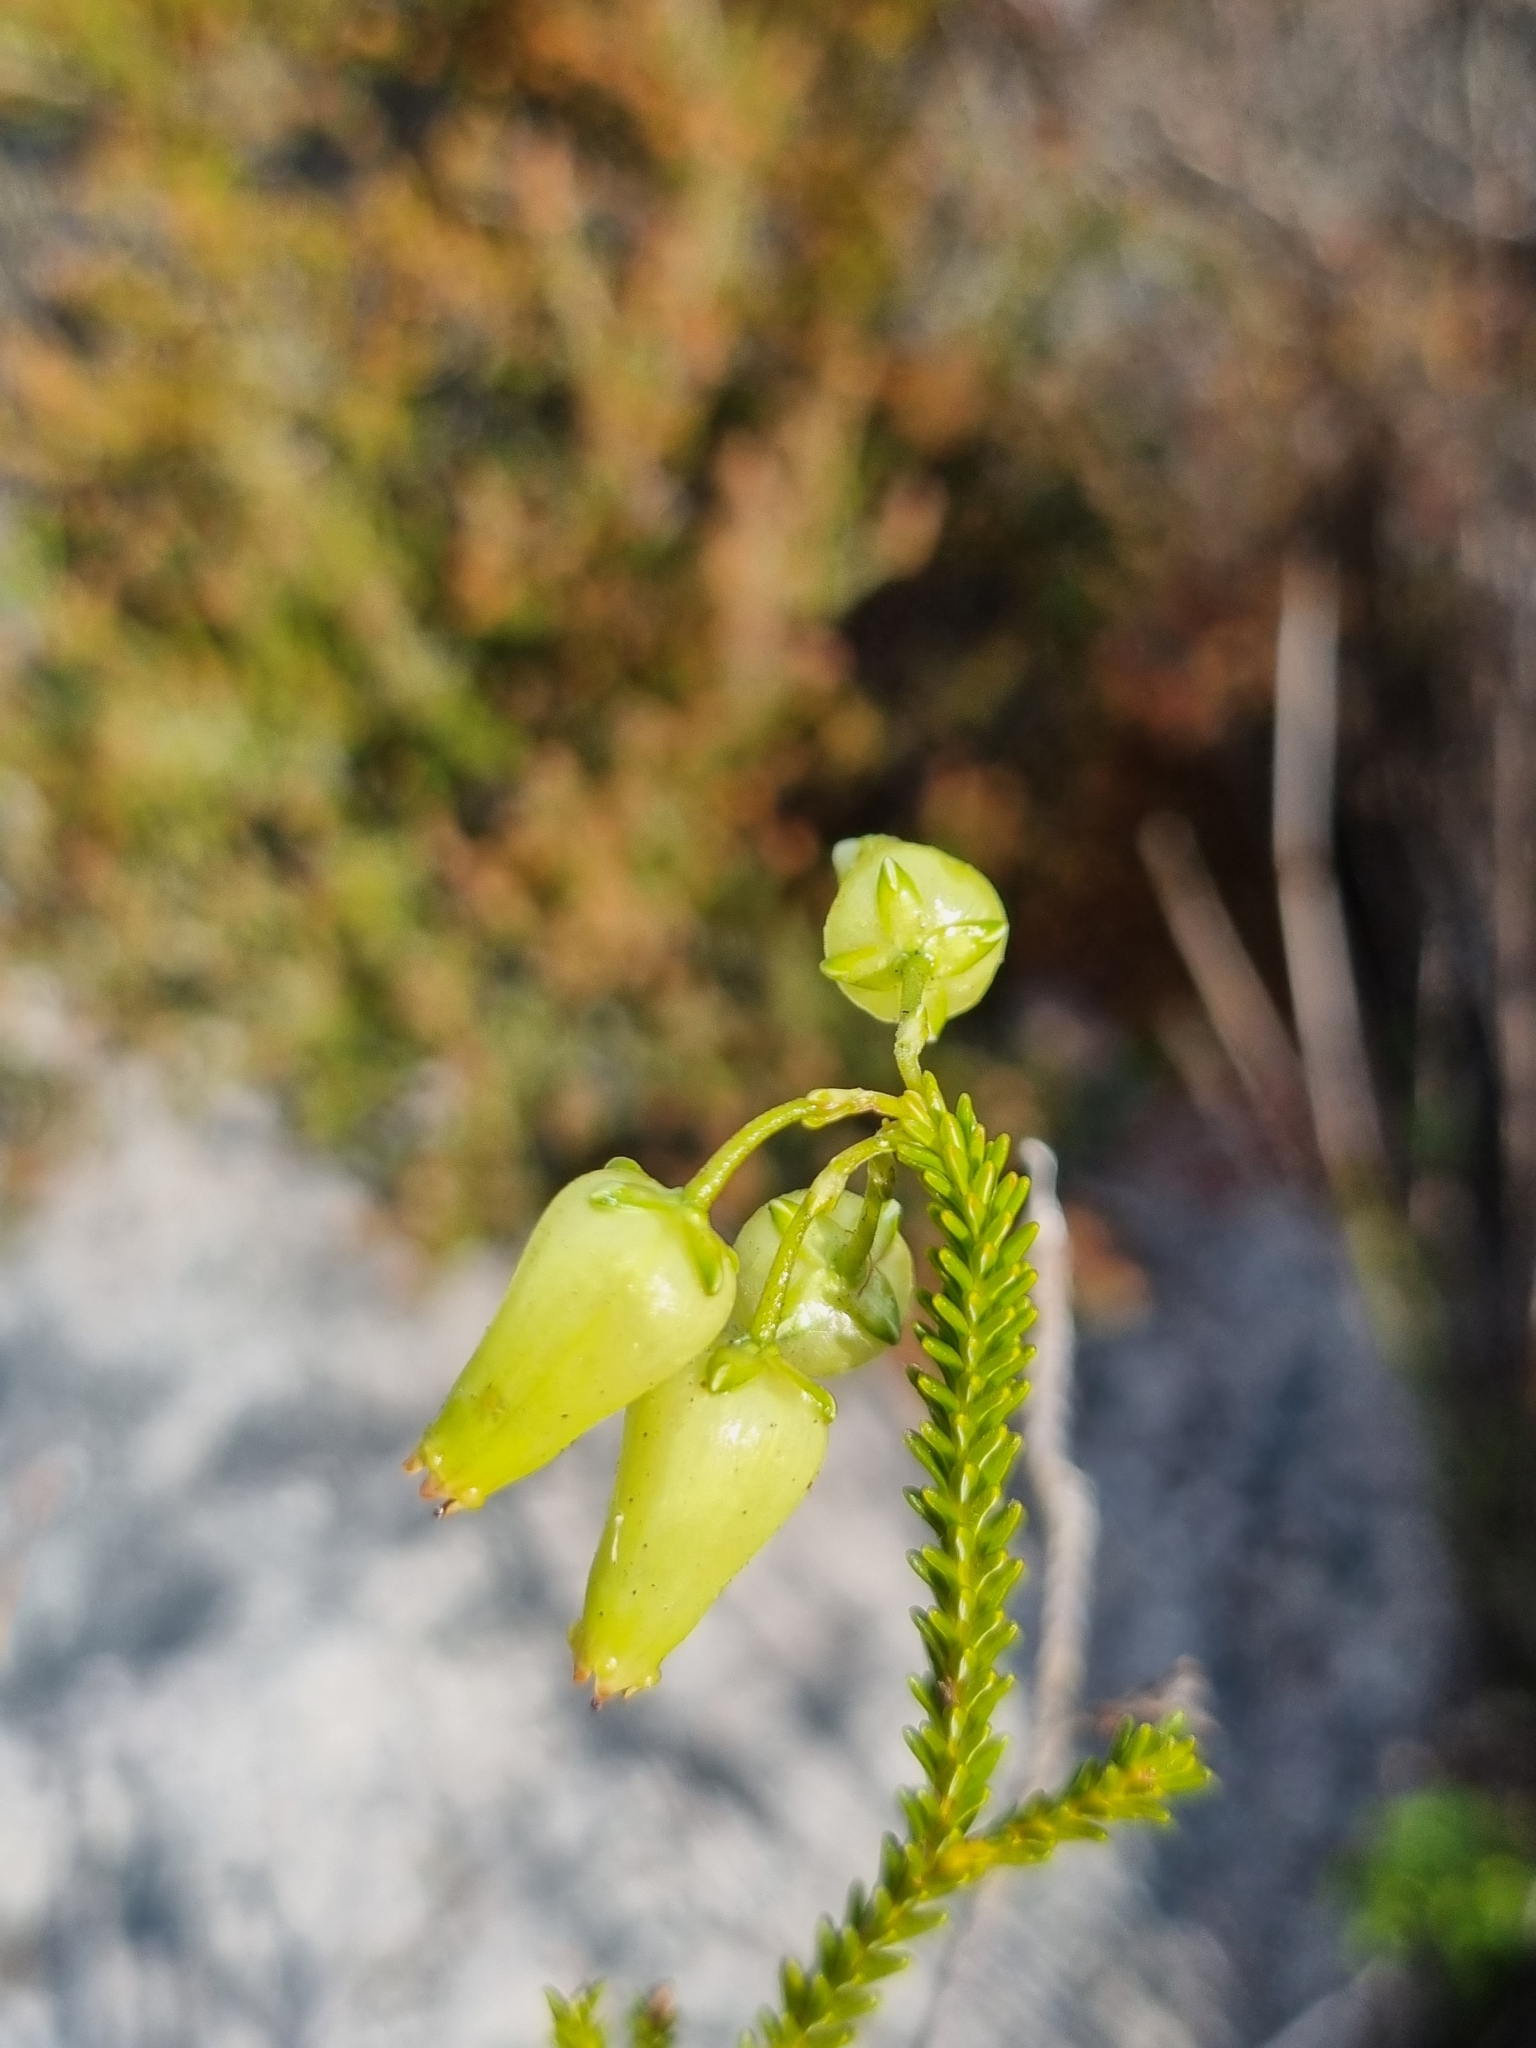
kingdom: Plantae
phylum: Tracheophyta
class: Magnoliopsida
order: Ericales
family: Ericaceae
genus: Erica
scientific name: Erica urna-viridis
